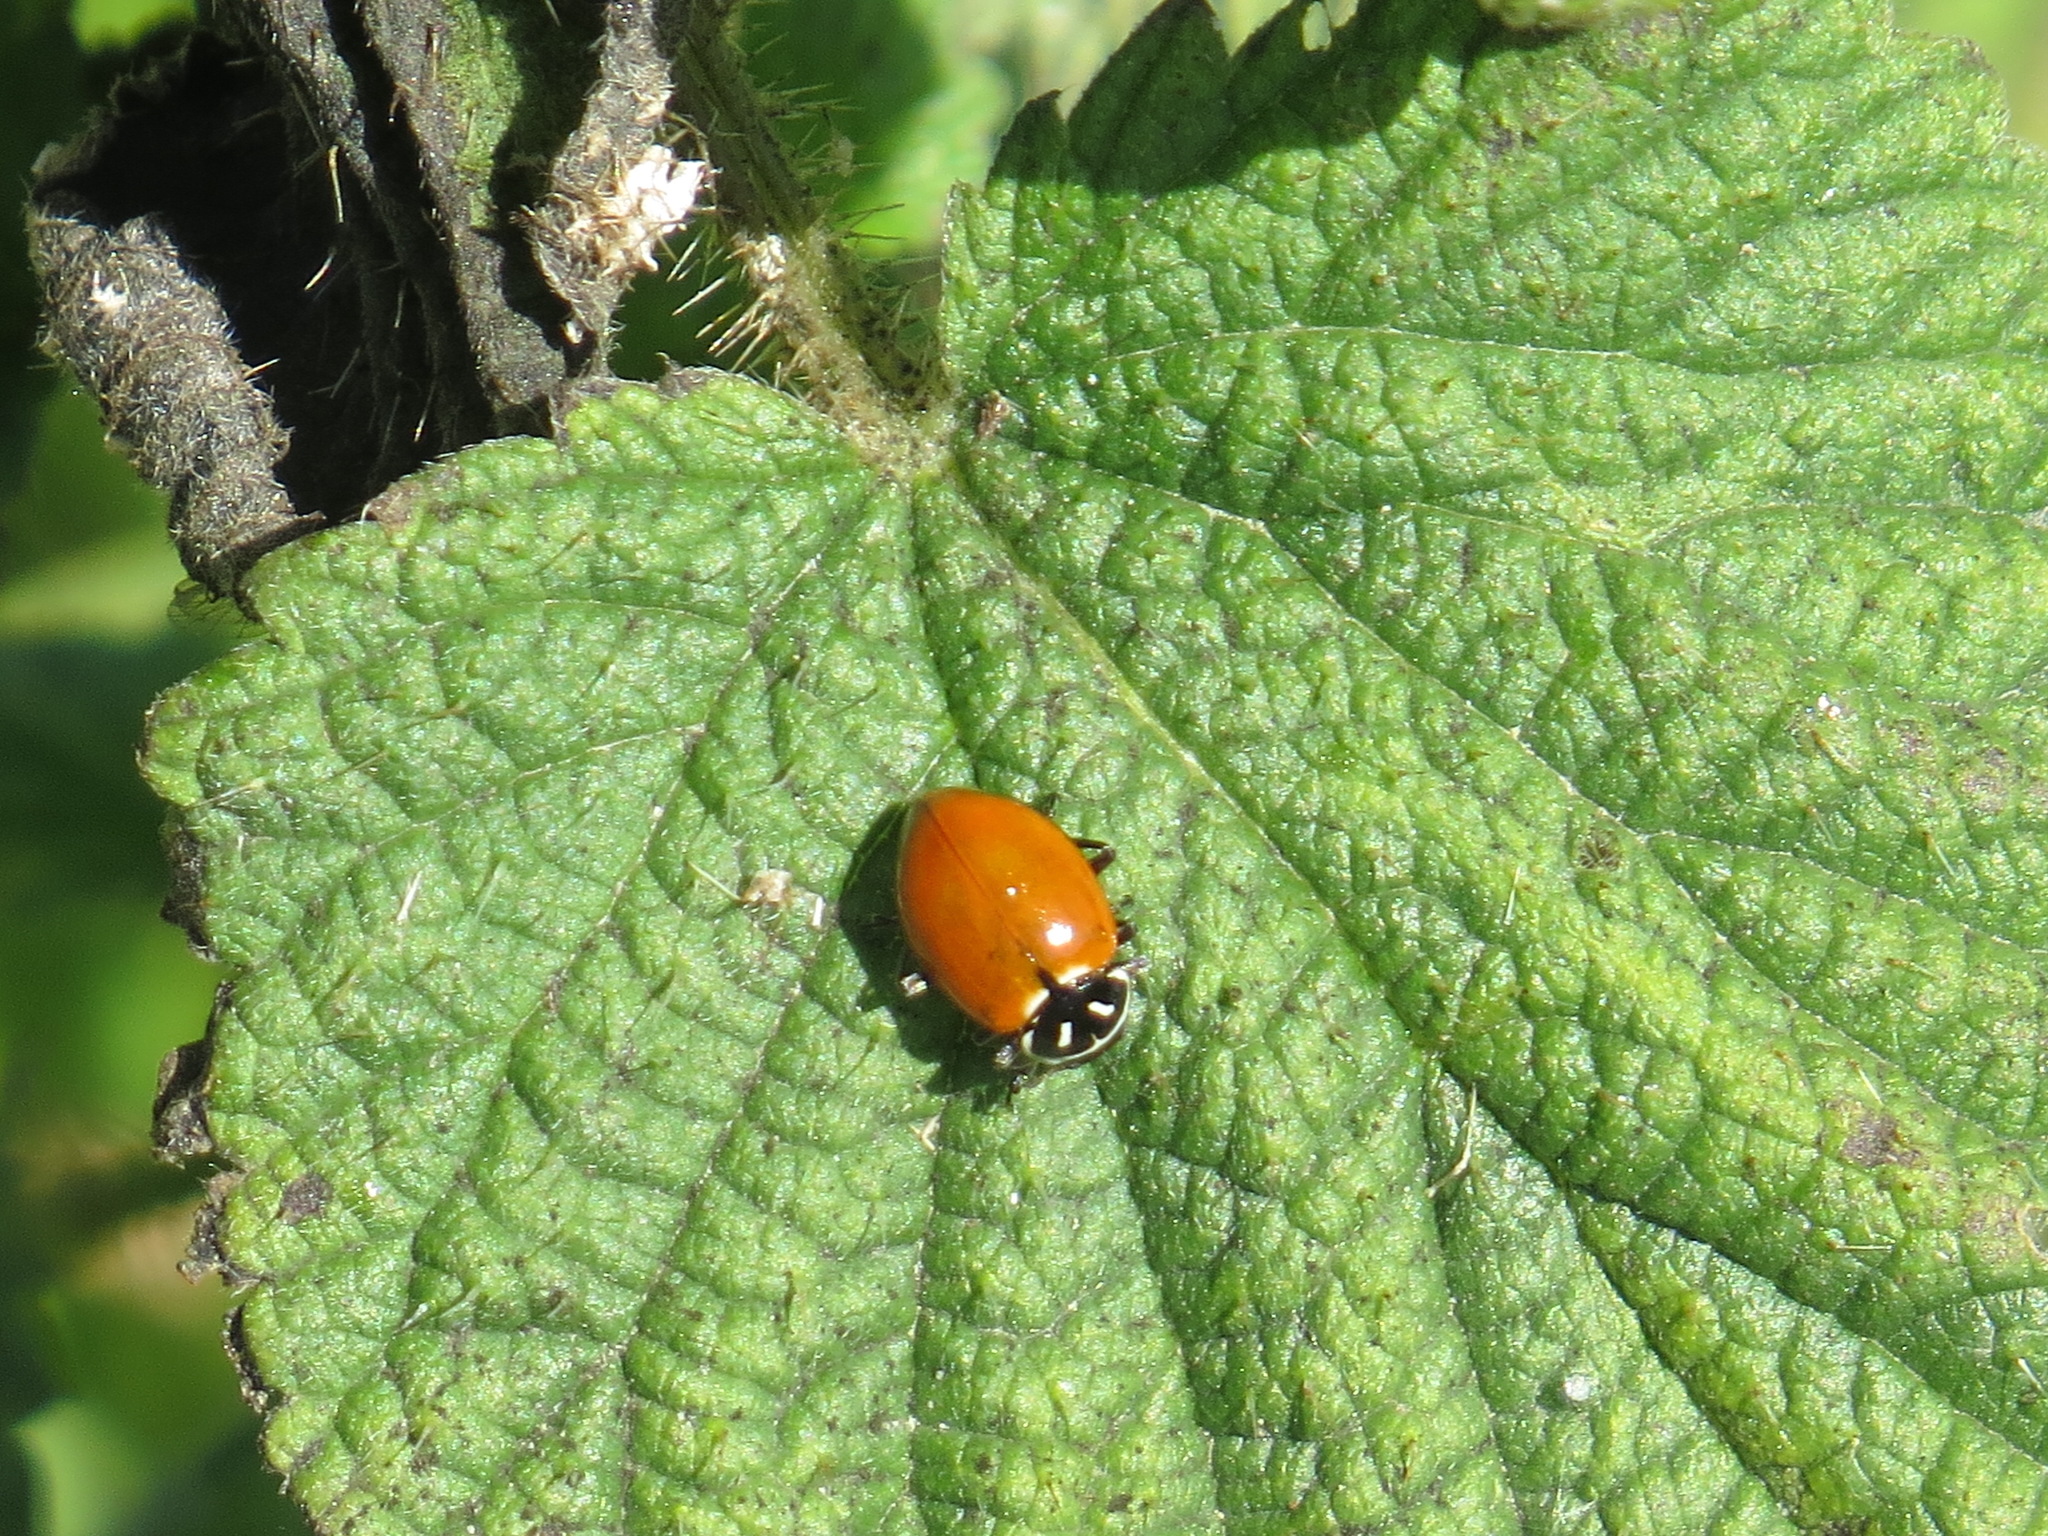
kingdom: Animalia
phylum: Arthropoda
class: Insecta
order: Coleoptera
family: Coccinellidae
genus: Hippodamia
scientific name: Hippodamia convergens
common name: Convergent lady beetle
